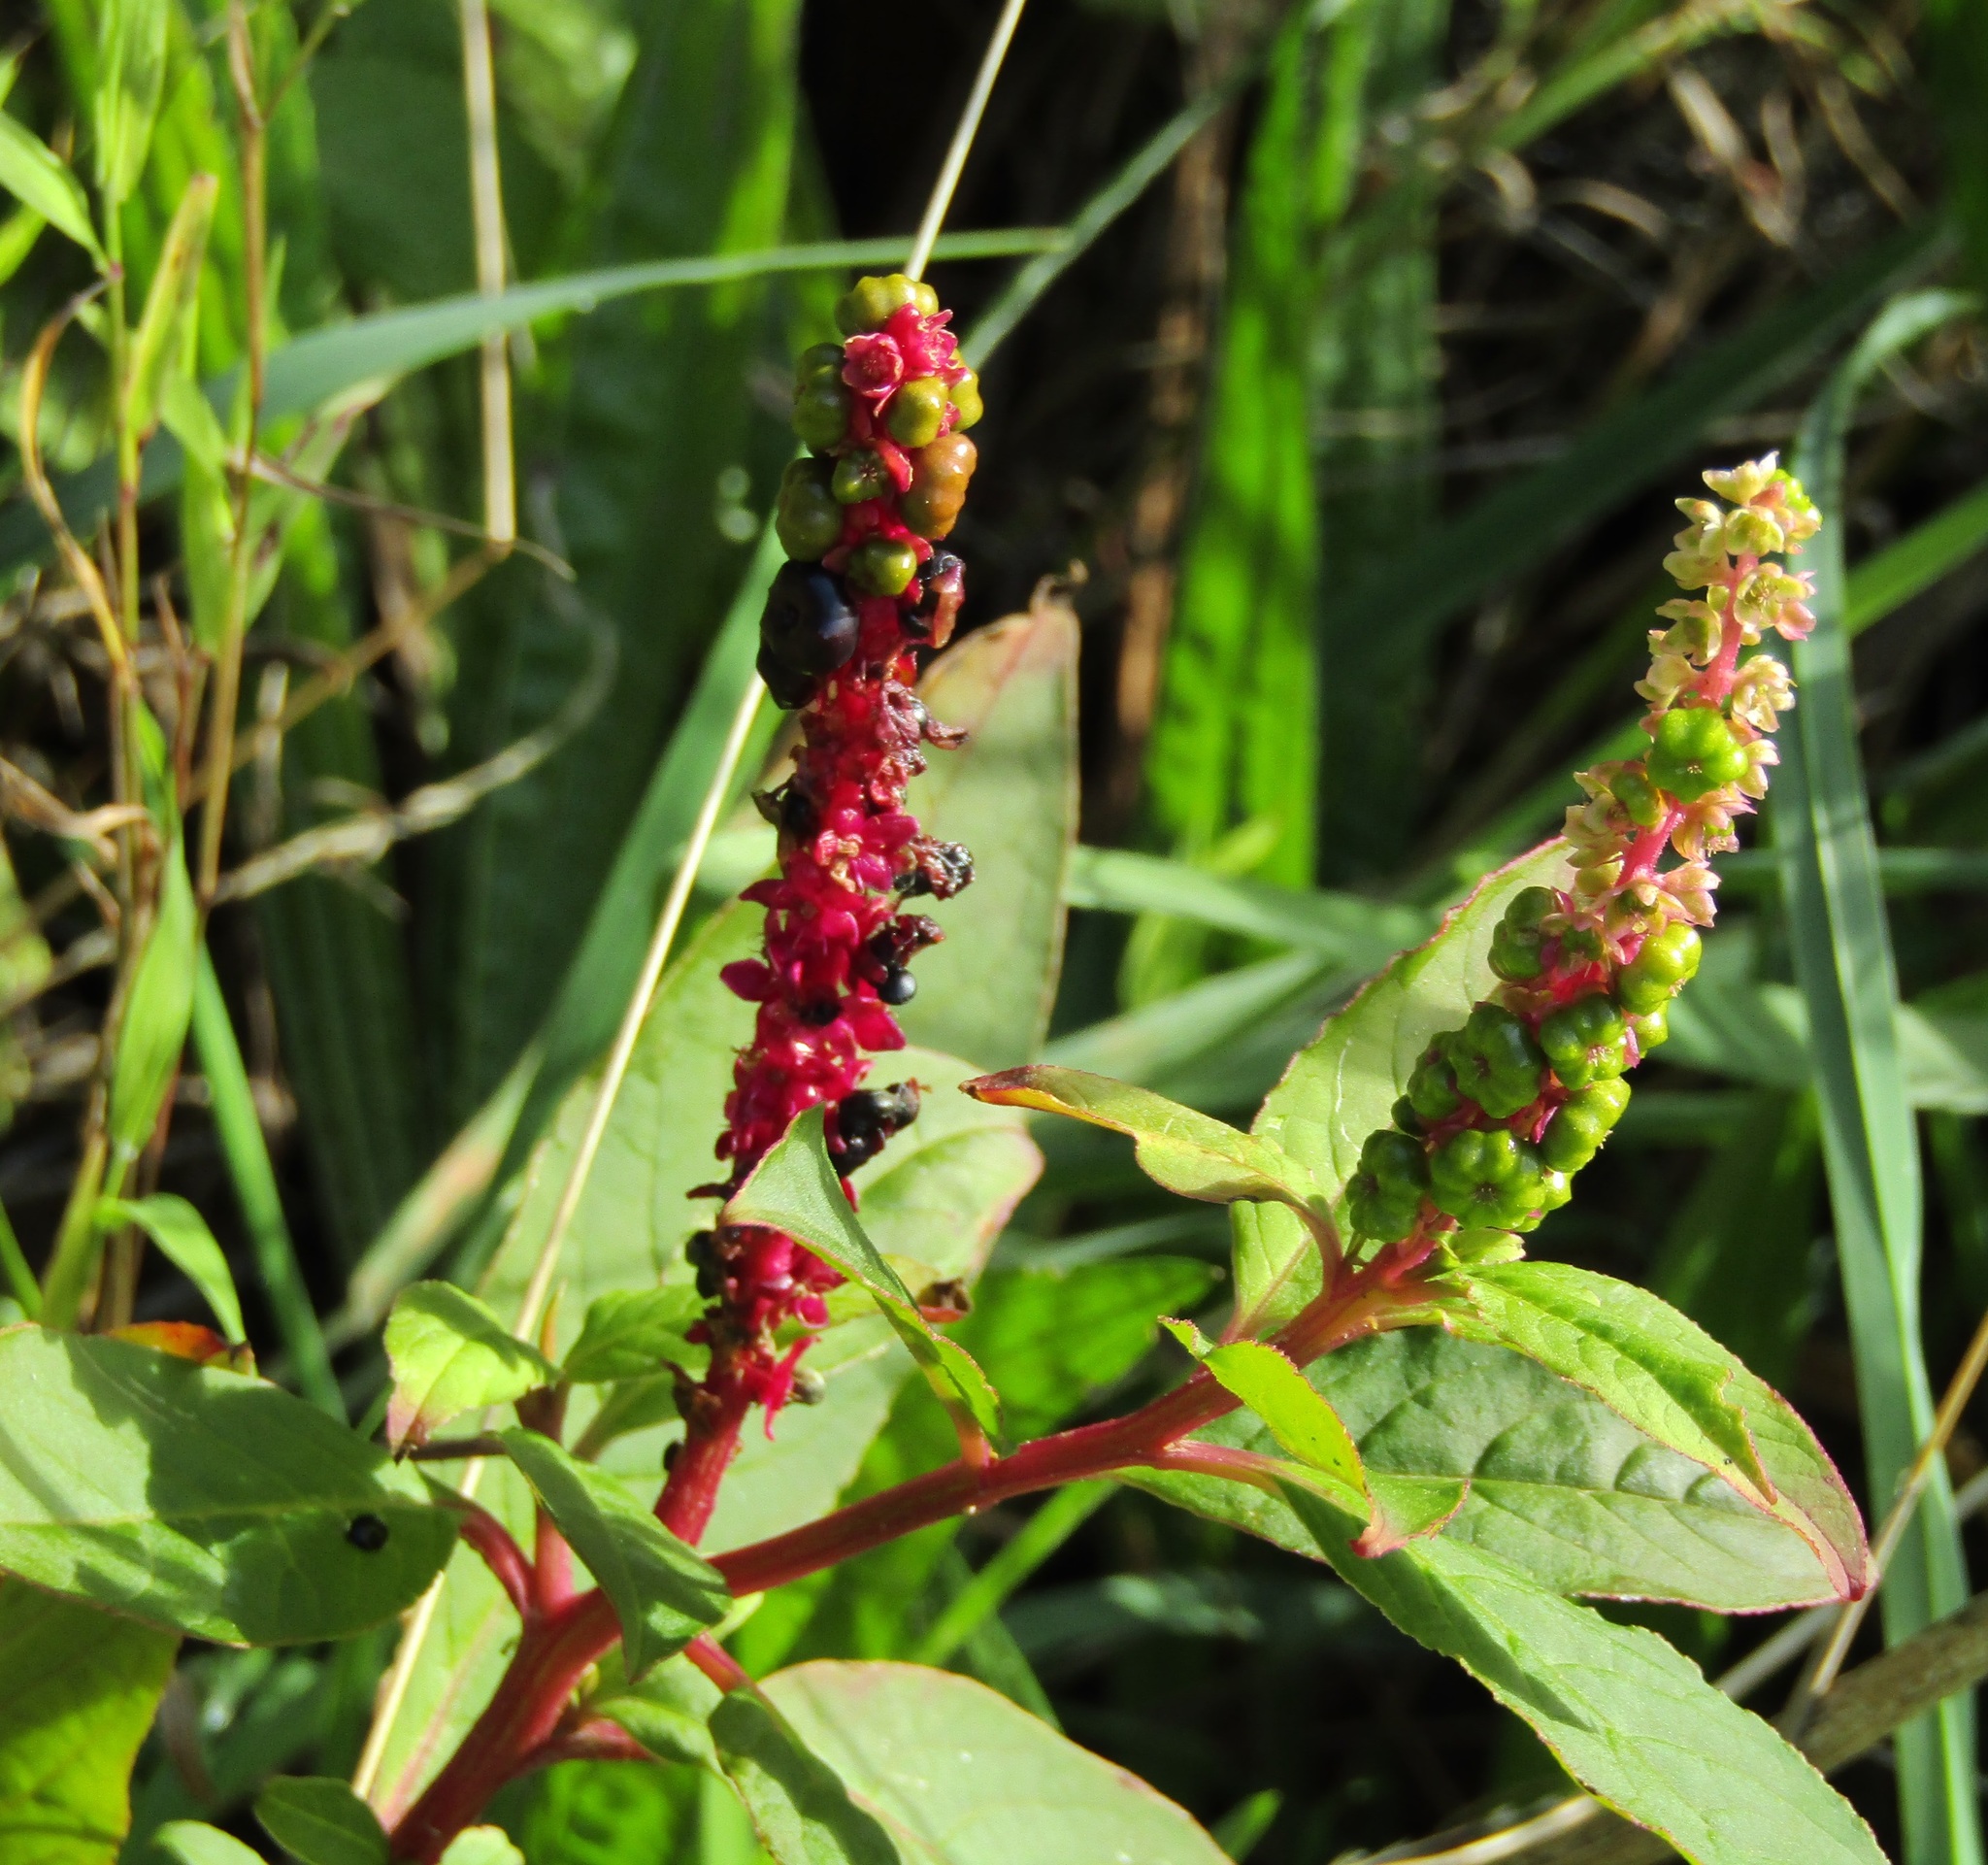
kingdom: Plantae
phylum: Tracheophyta
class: Magnoliopsida
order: Caryophyllales
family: Phytolaccaceae
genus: Phytolacca
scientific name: Phytolacca icosandra
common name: Button pokeweed
